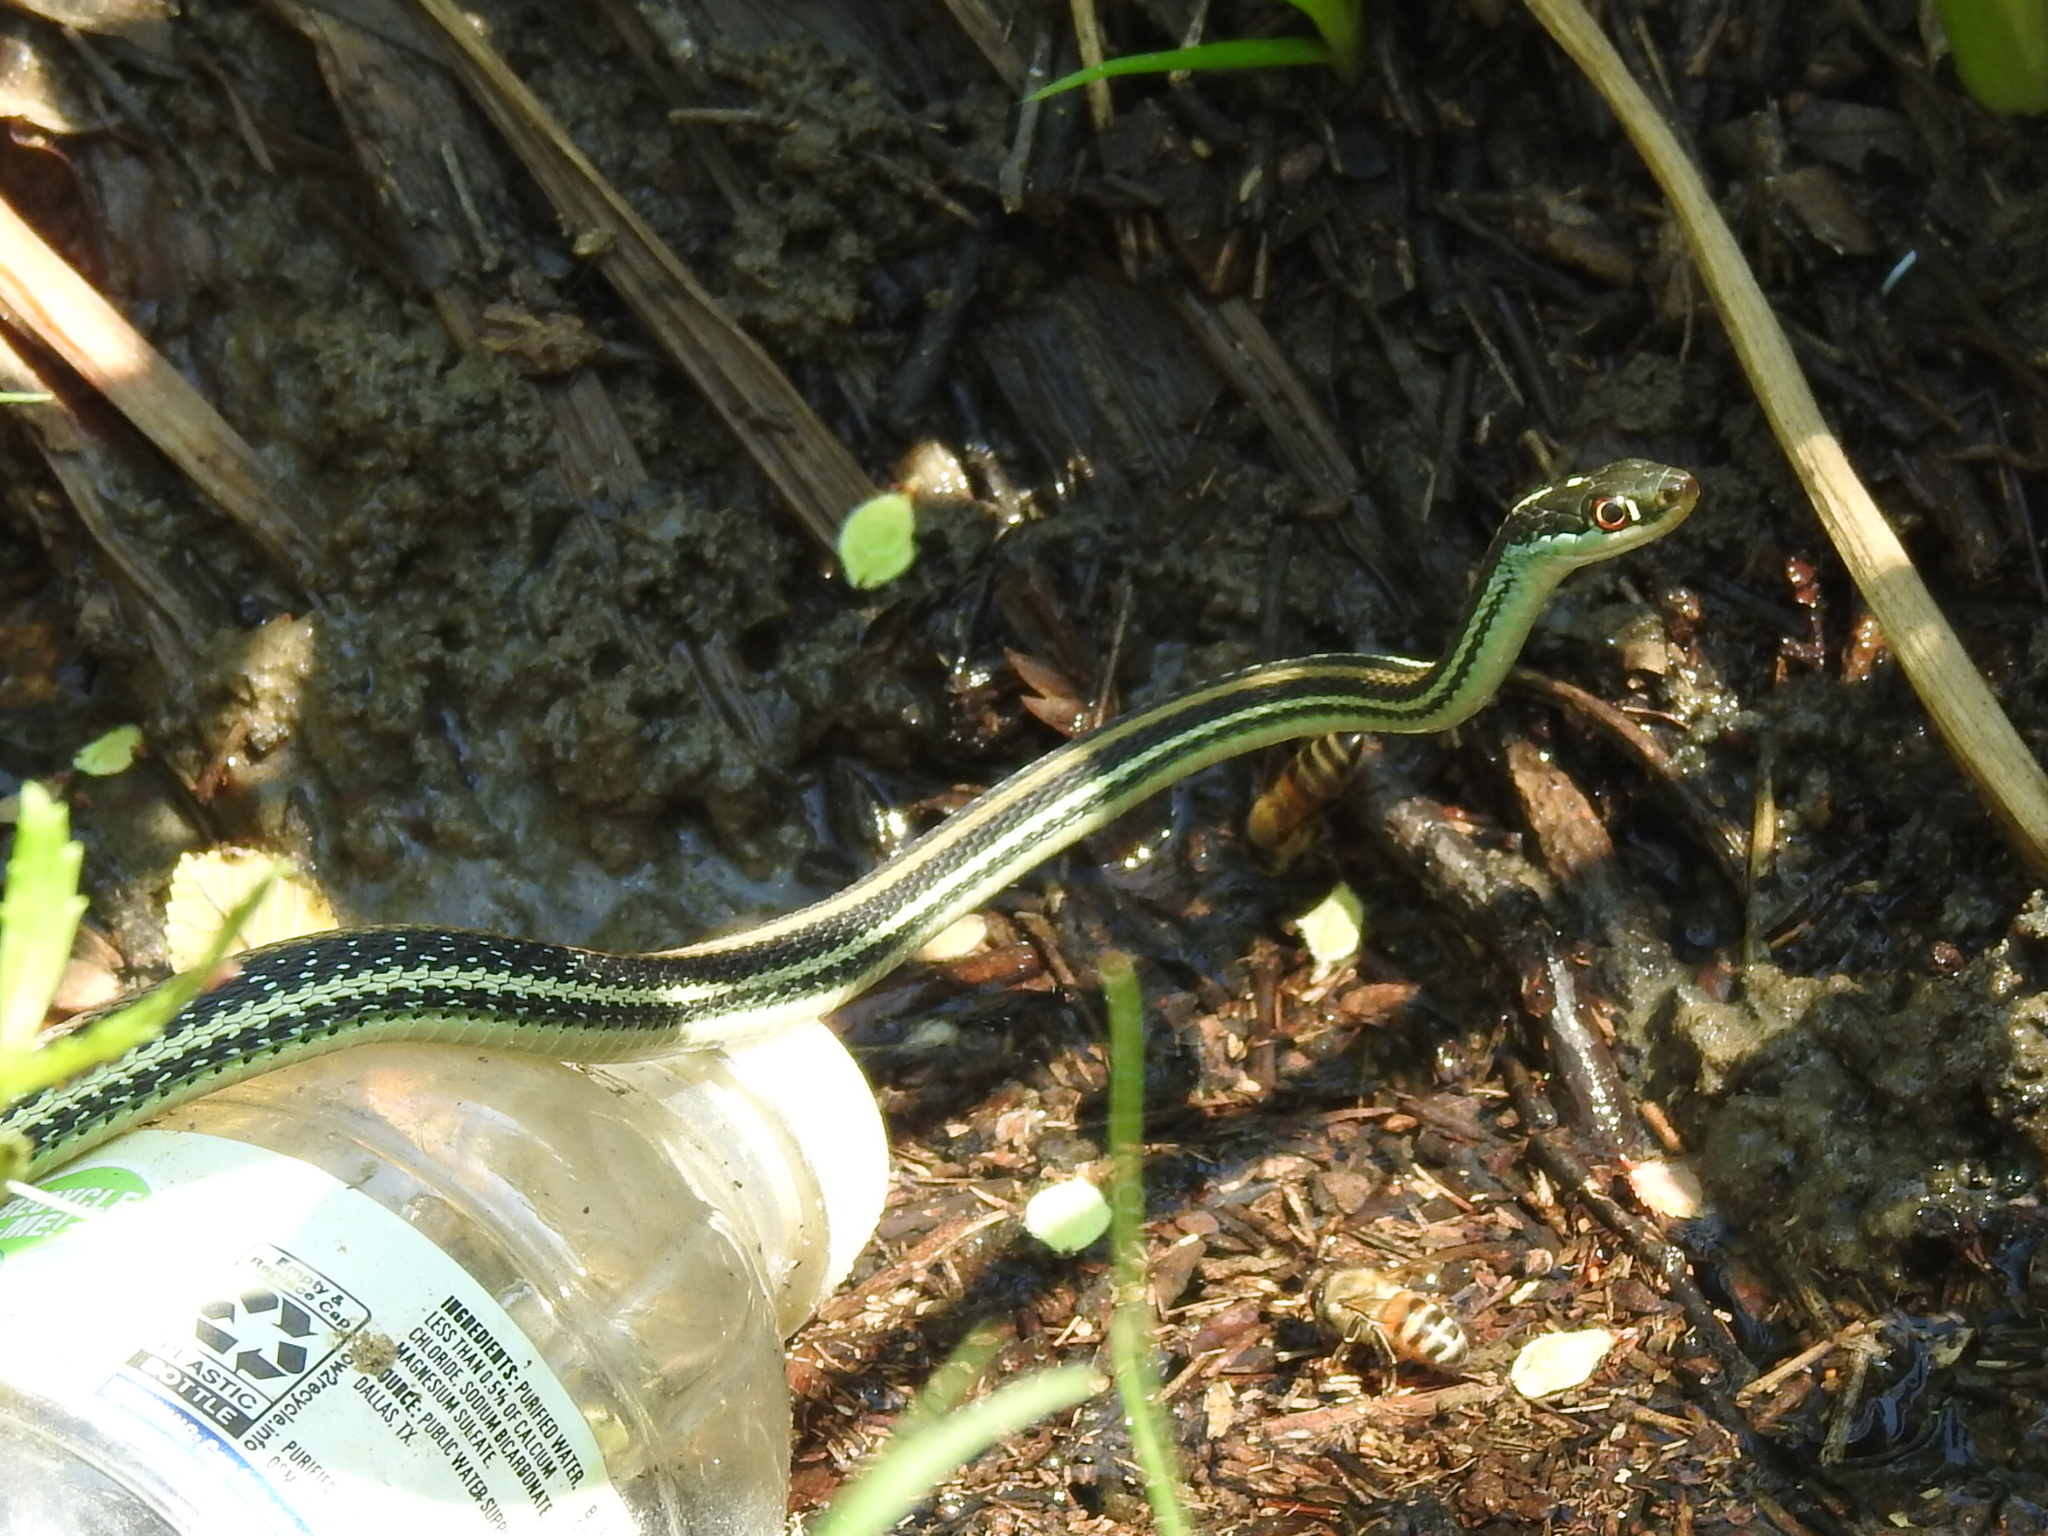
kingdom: Animalia
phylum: Chordata
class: Squamata
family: Colubridae
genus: Thamnophis
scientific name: Thamnophis proximus
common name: Western ribbon snake
